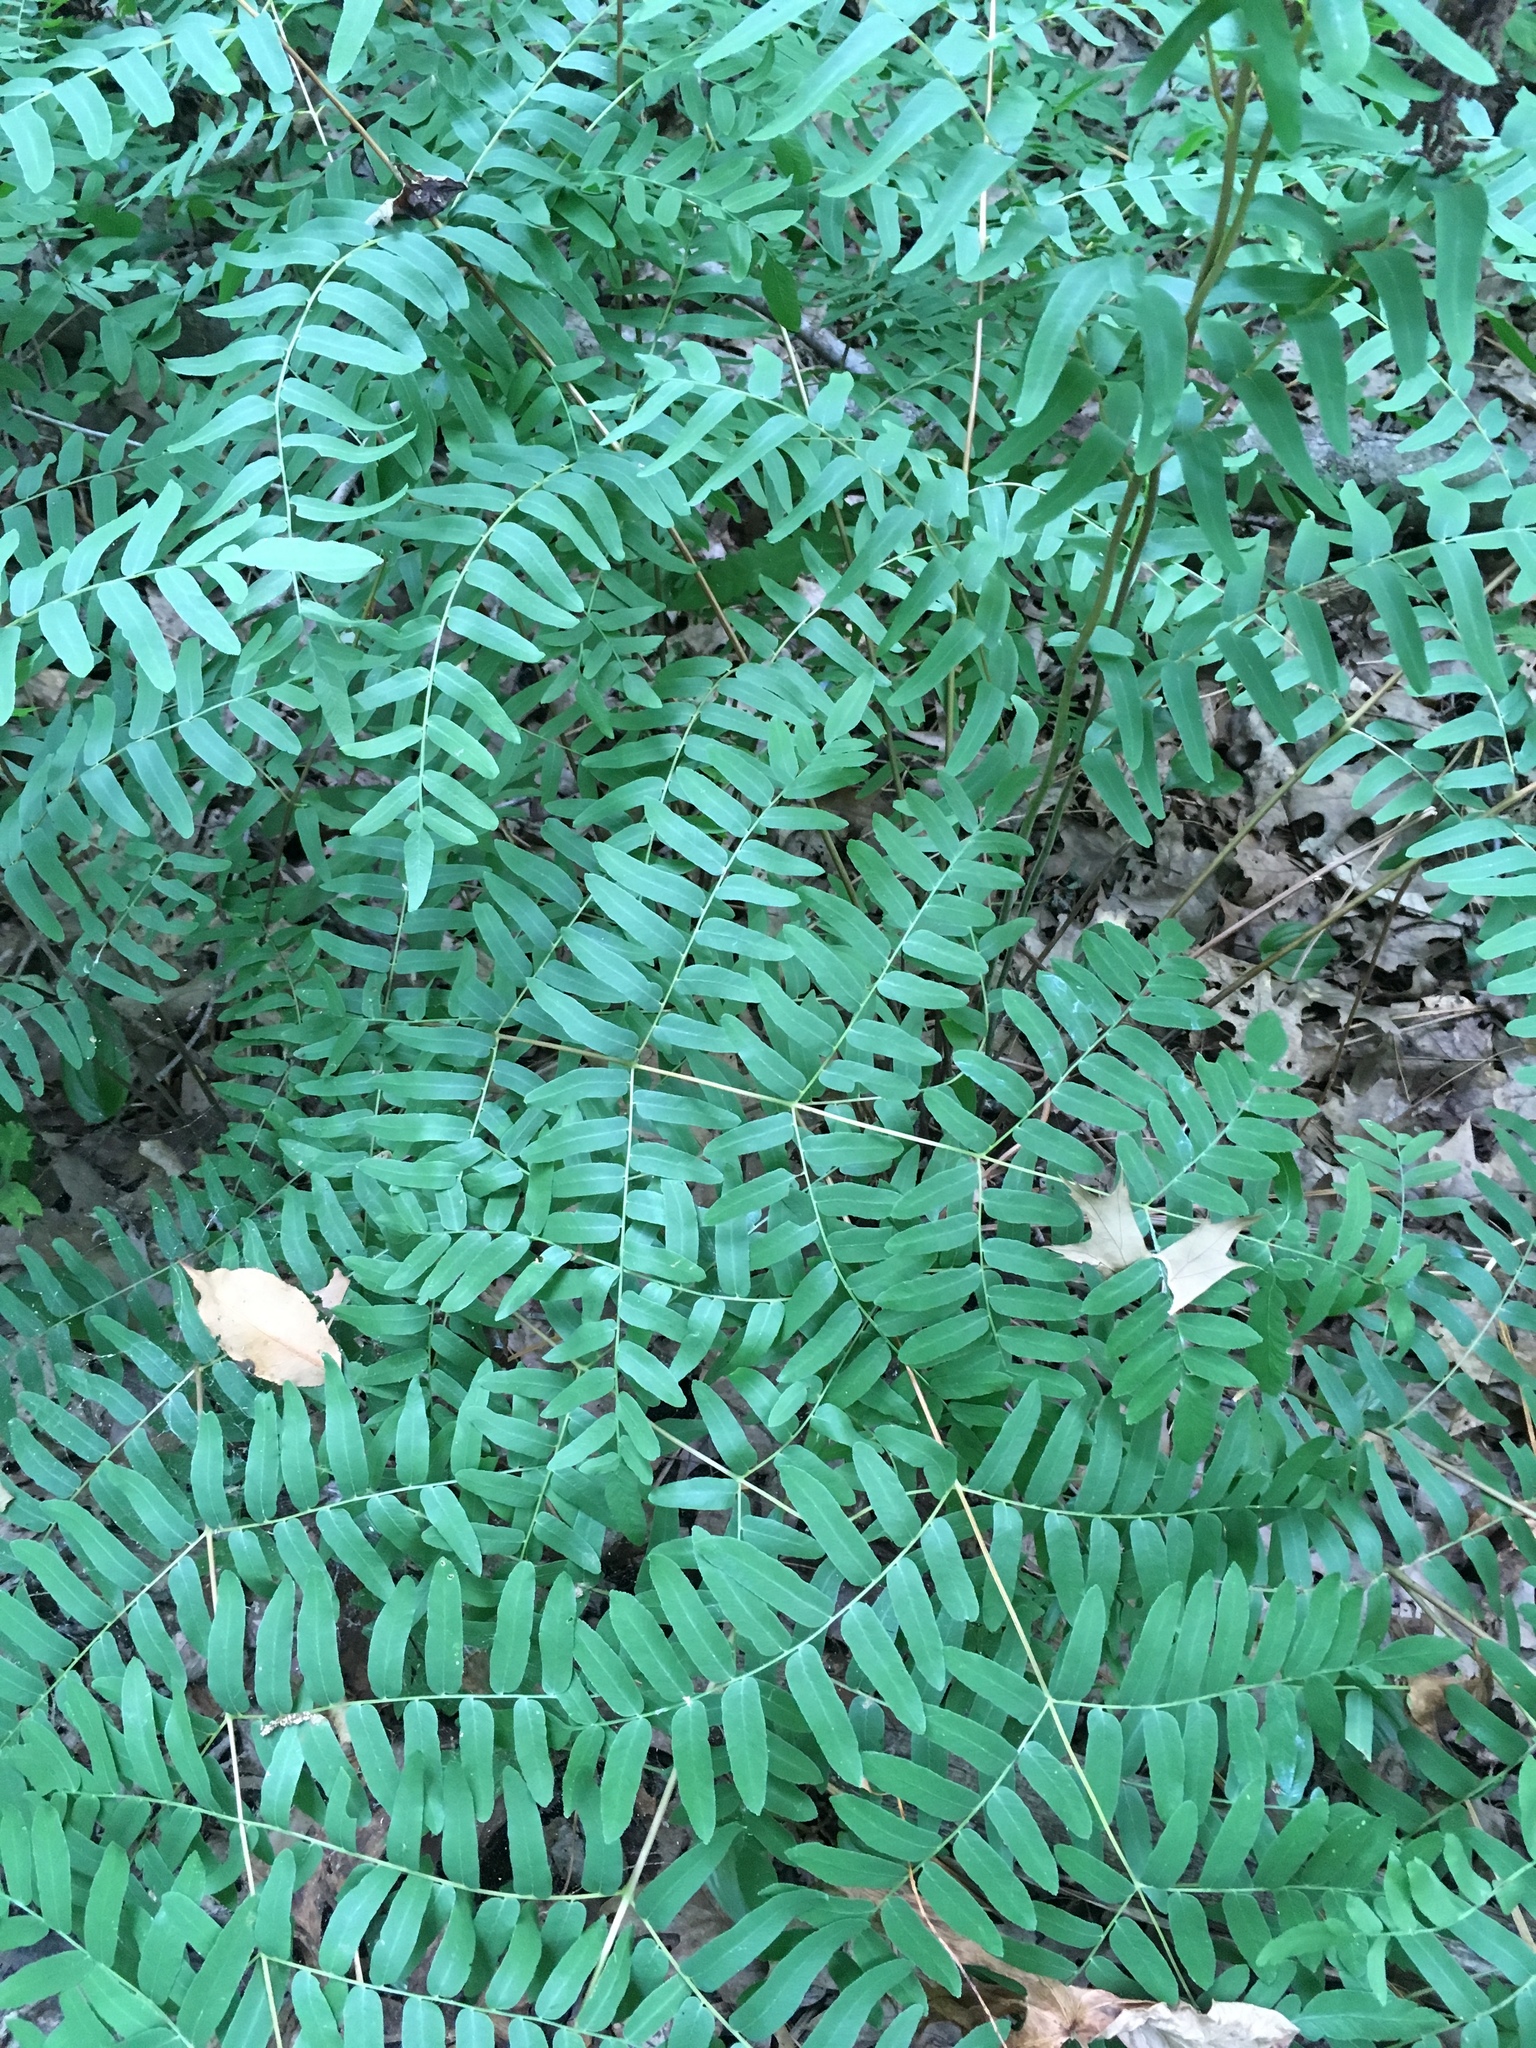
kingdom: Plantae
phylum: Tracheophyta
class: Polypodiopsida
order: Osmundales
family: Osmundaceae
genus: Osmunda
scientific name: Osmunda spectabilis
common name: American royal fern
